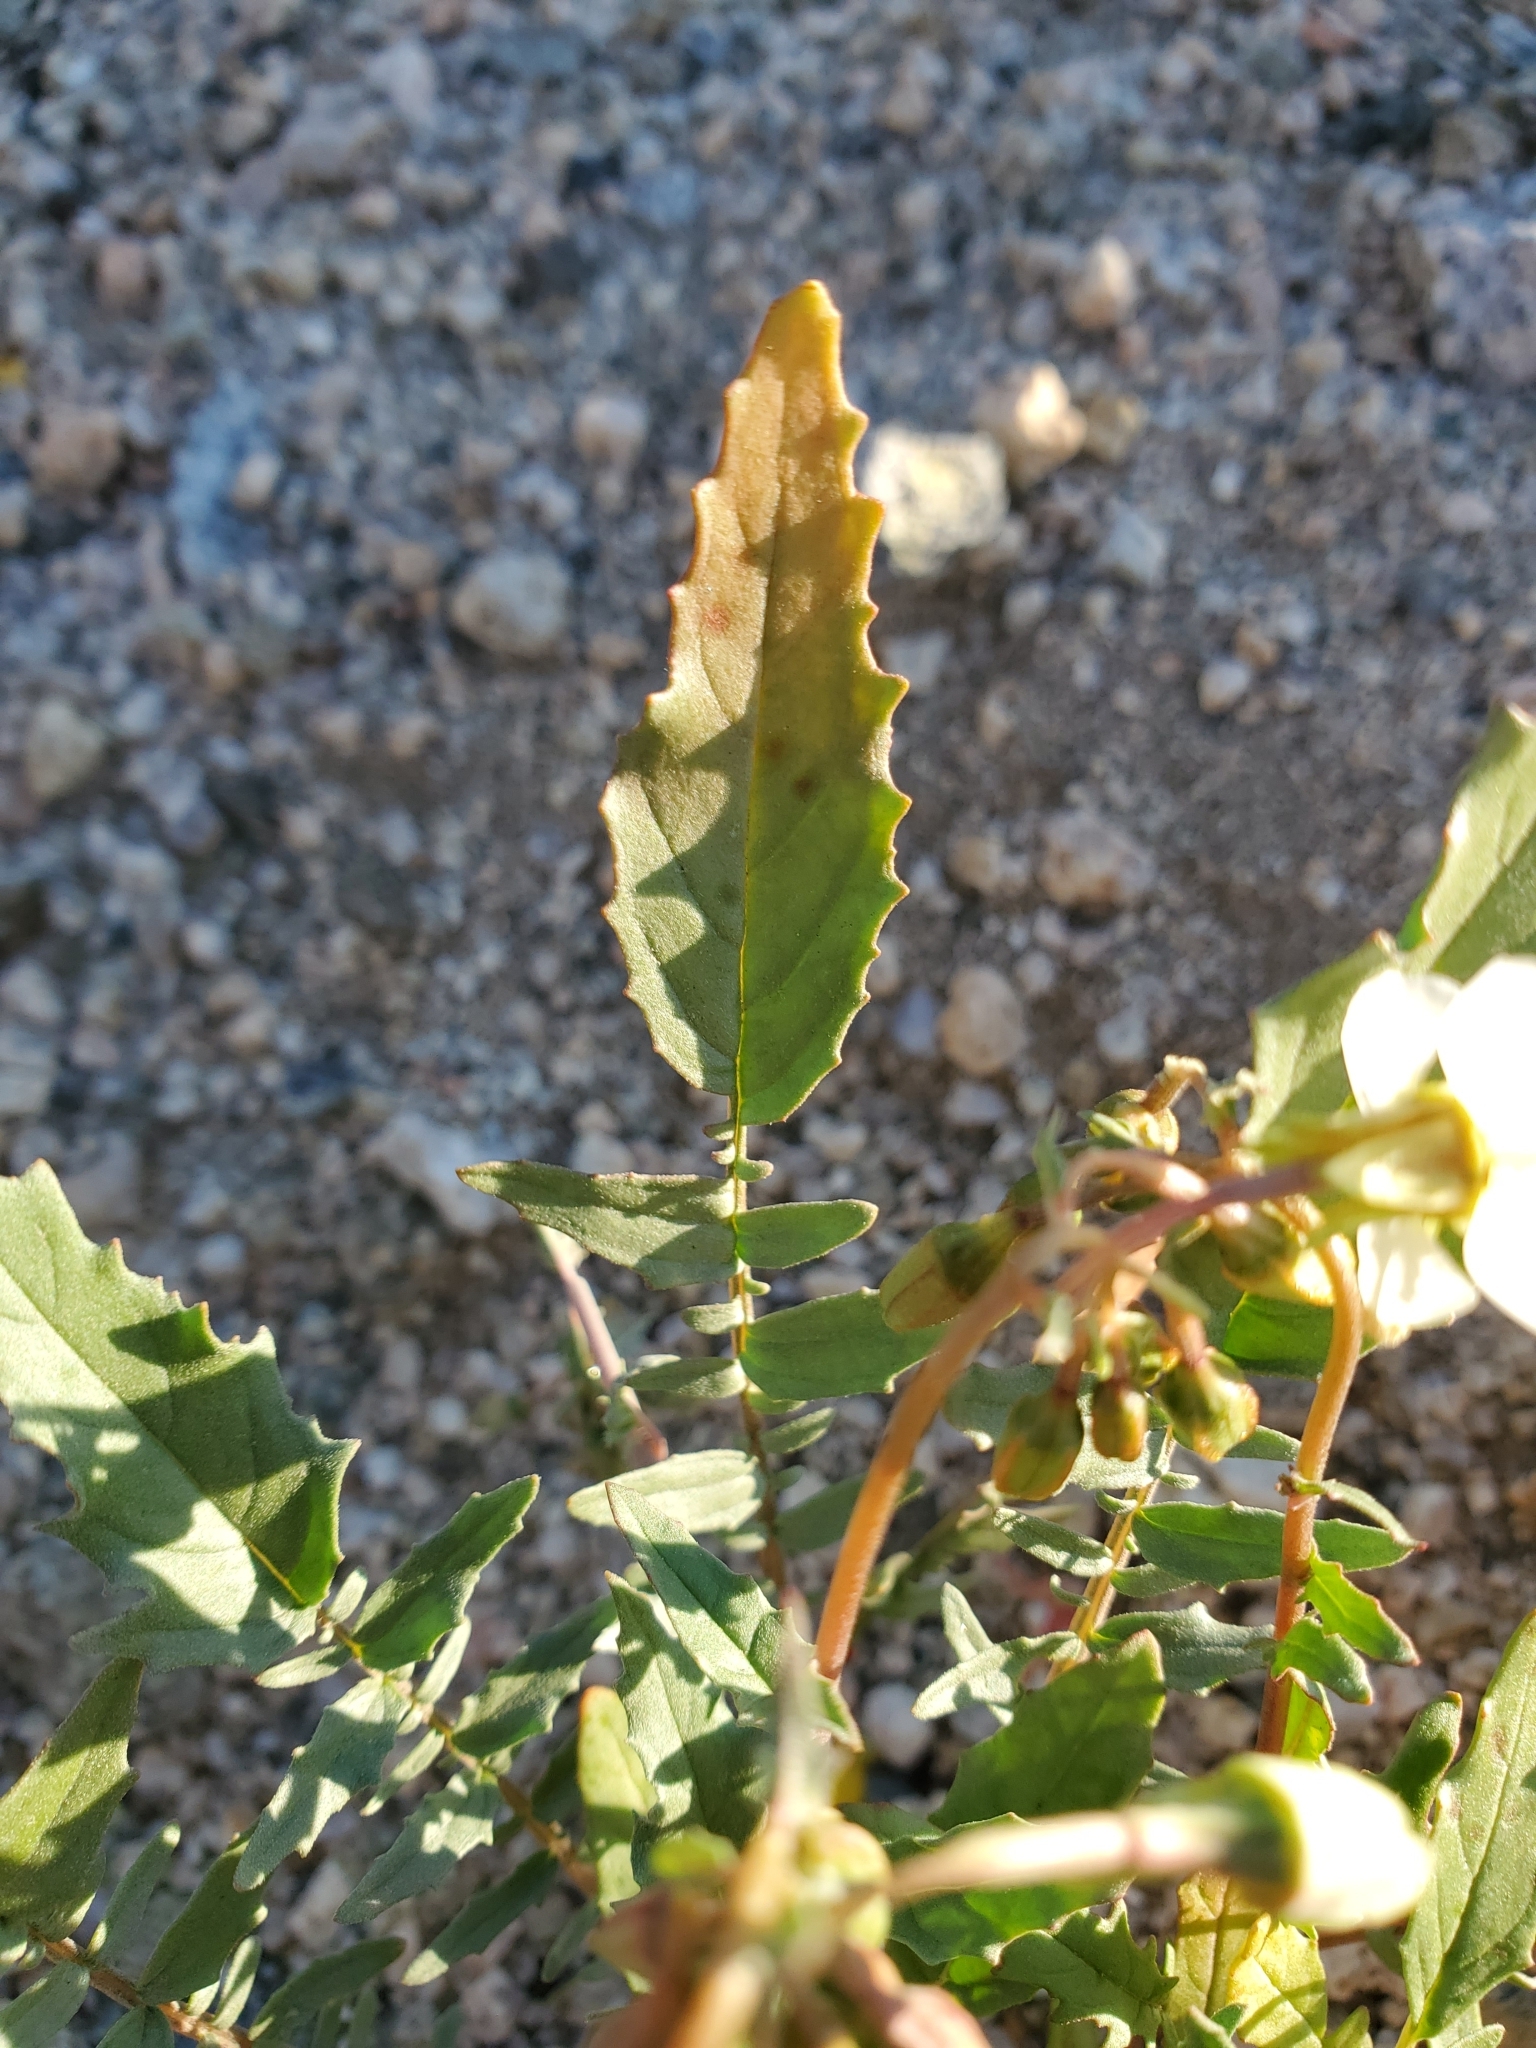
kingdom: Plantae
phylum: Tracheophyta
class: Magnoliopsida
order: Myrtales
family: Onagraceae
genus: Chylismia
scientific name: Chylismia claviformis
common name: Browneyes
